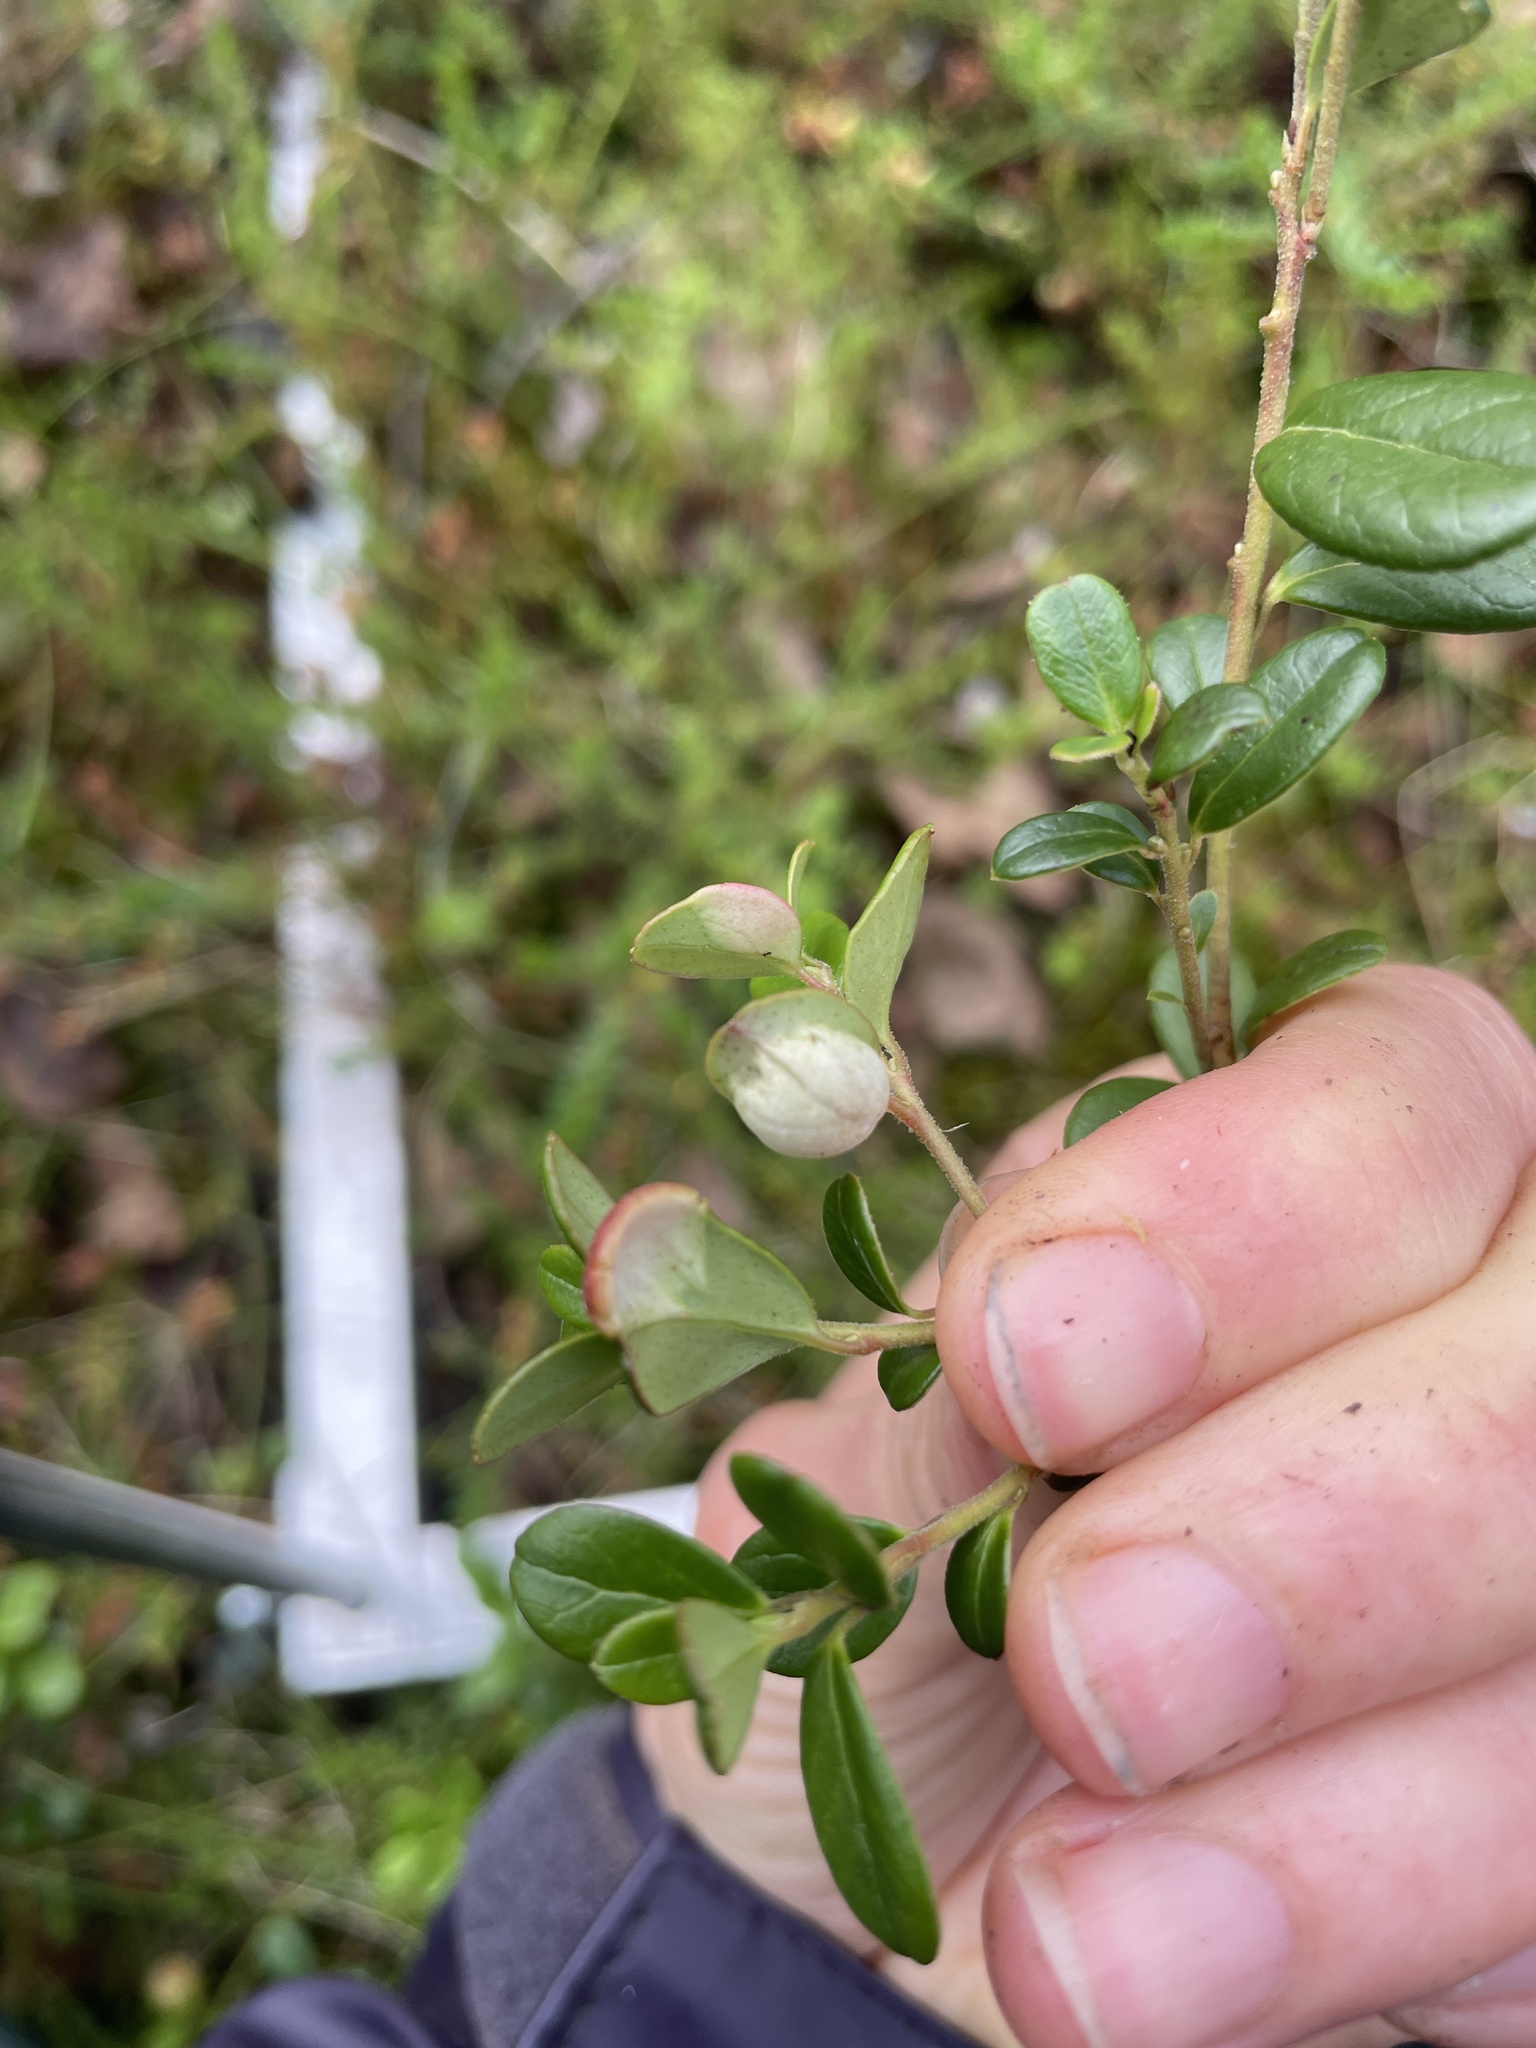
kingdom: Fungi
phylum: Basidiomycota
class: Exobasidiomycetes
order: Exobasidiales
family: Exobasidiaceae
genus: Exobasidium
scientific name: Exobasidium vaccinii
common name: Cowberry redleaf
